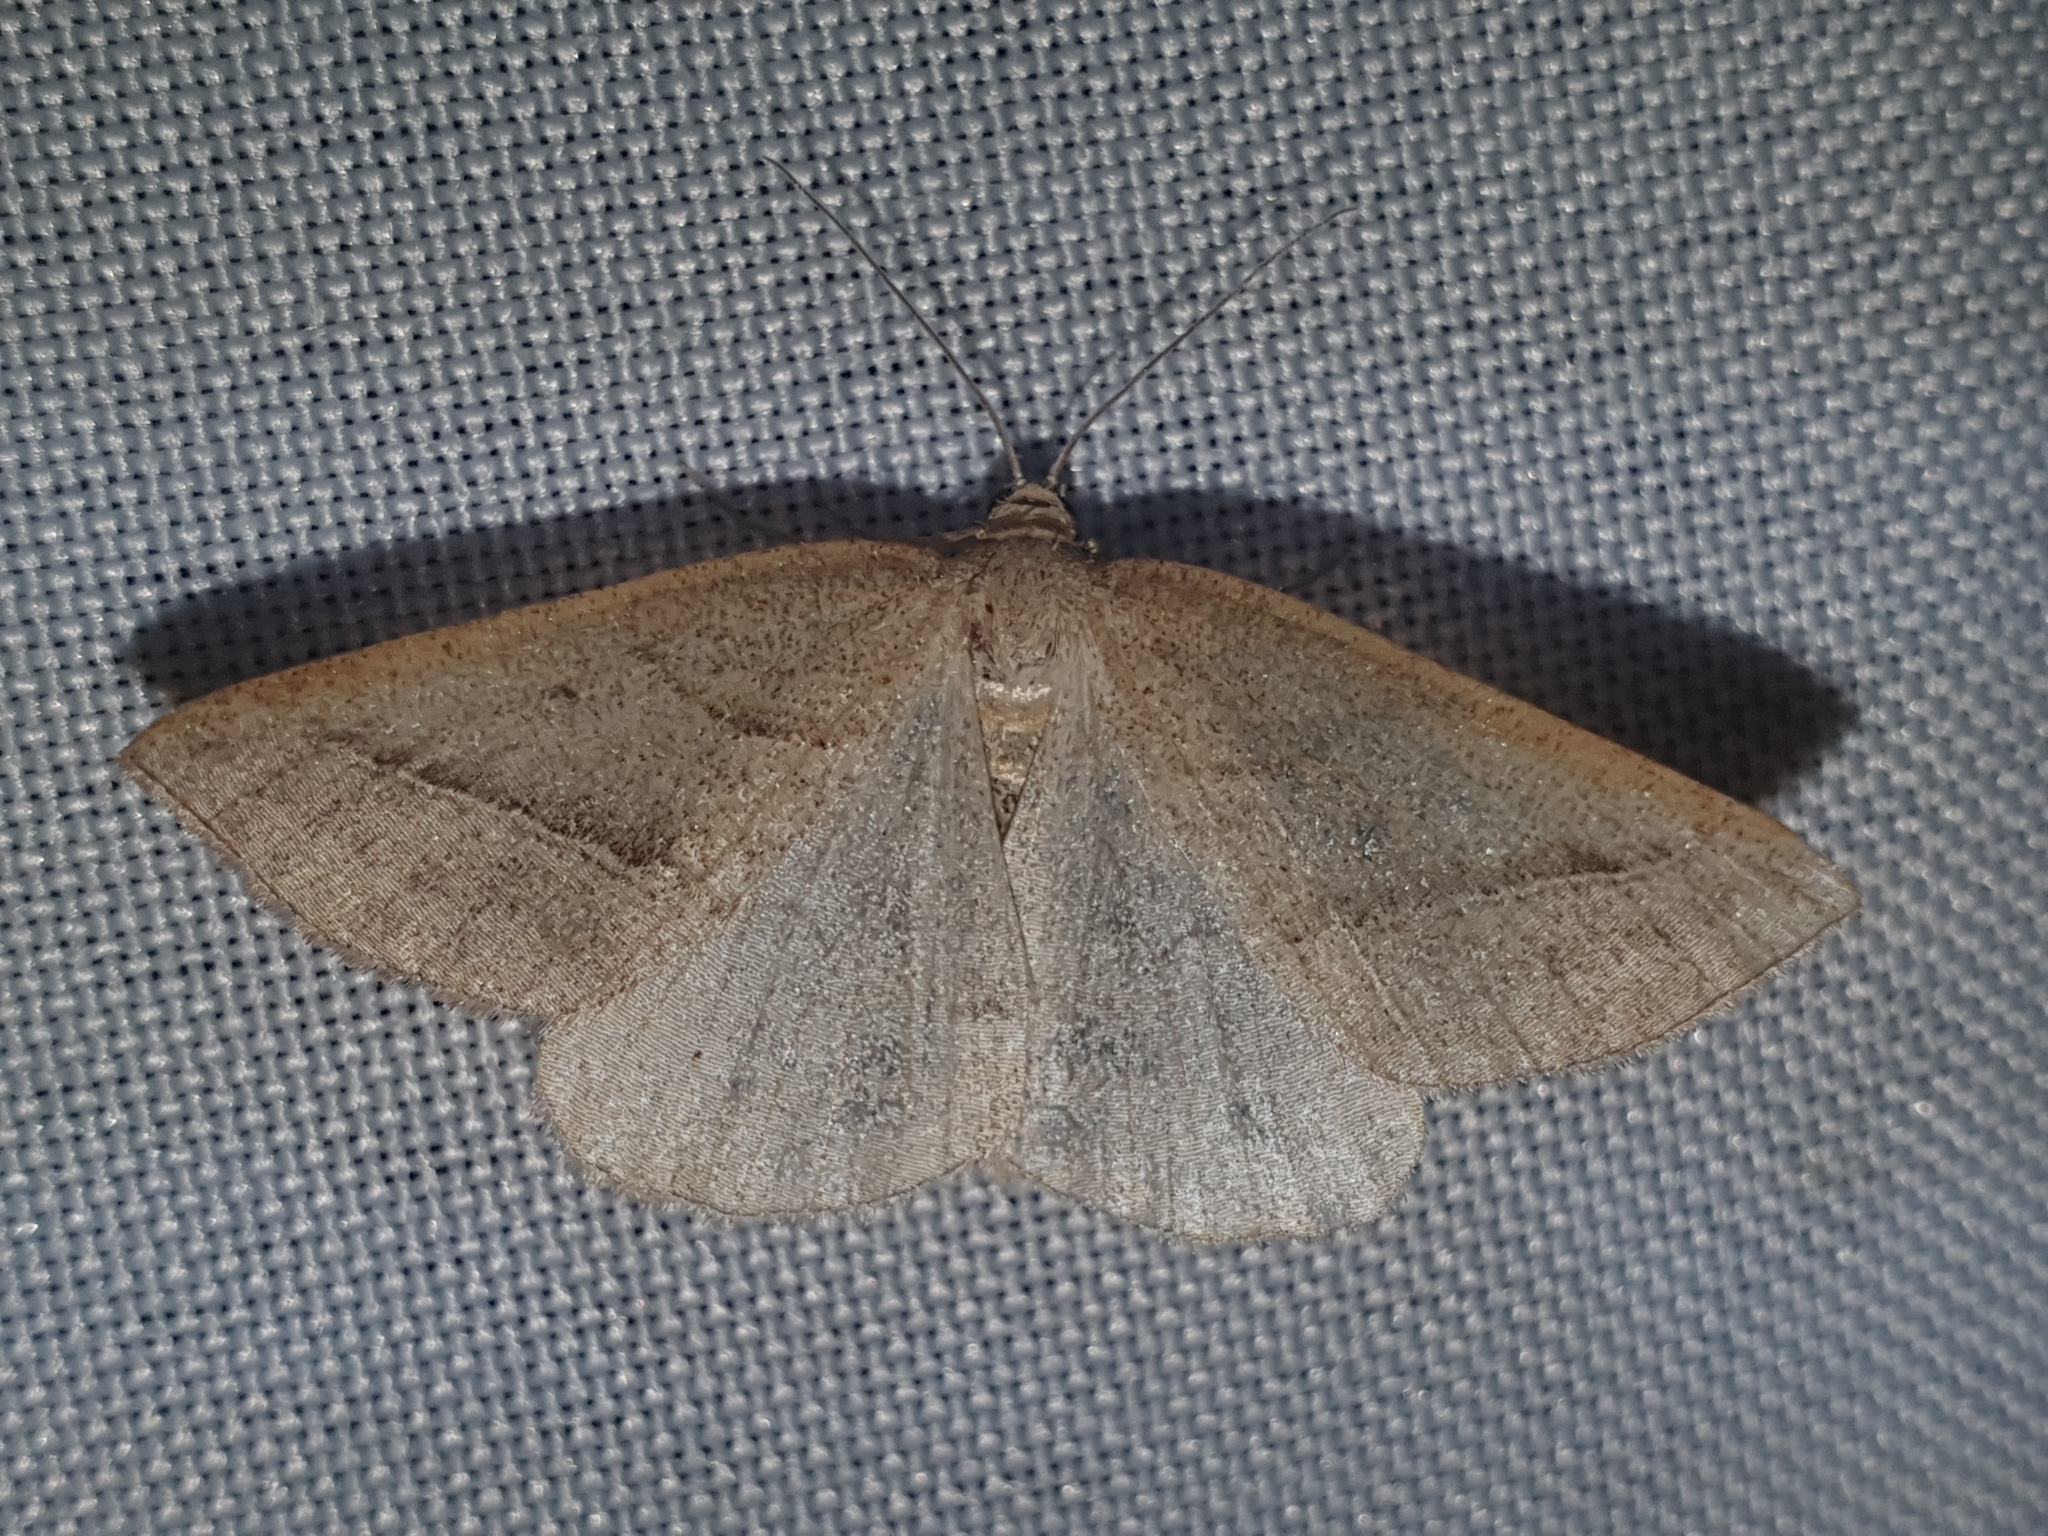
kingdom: Animalia
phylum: Arthropoda
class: Insecta
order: Lepidoptera
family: Pterophoridae
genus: Pterophorus
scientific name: Pterophorus Petrophora chlorosata
